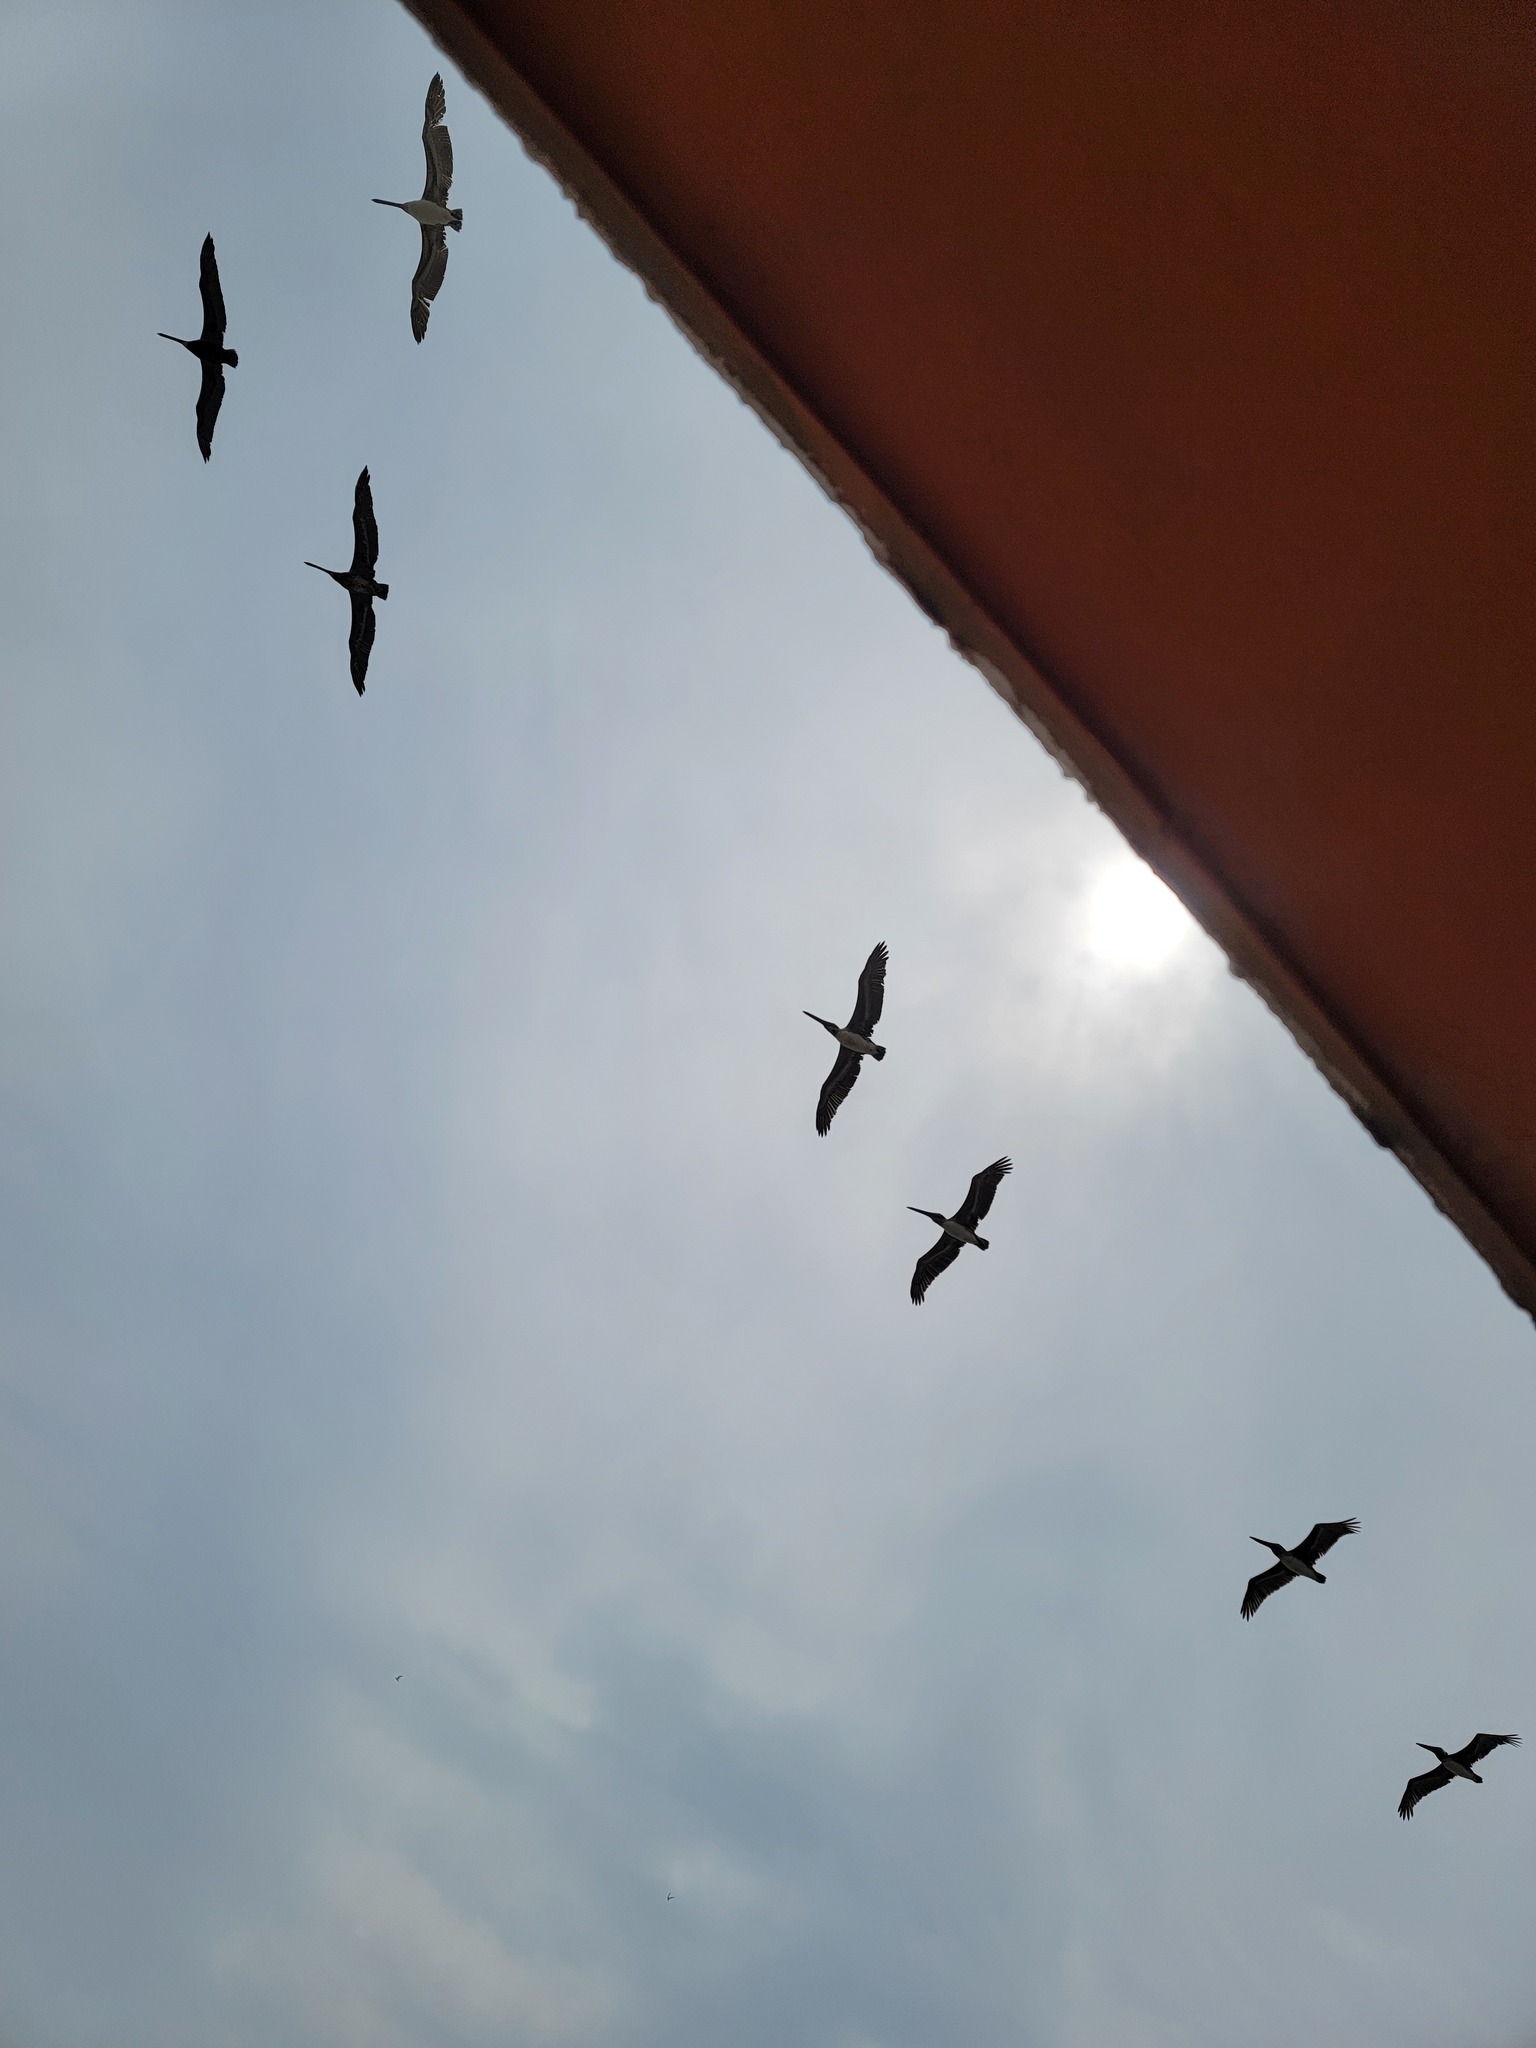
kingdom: Animalia
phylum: Chordata
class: Aves
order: Pelecaniformes
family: Pelecanidae
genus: Pelecanus
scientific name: Pelecanus occidentalis
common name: Brown pelican
